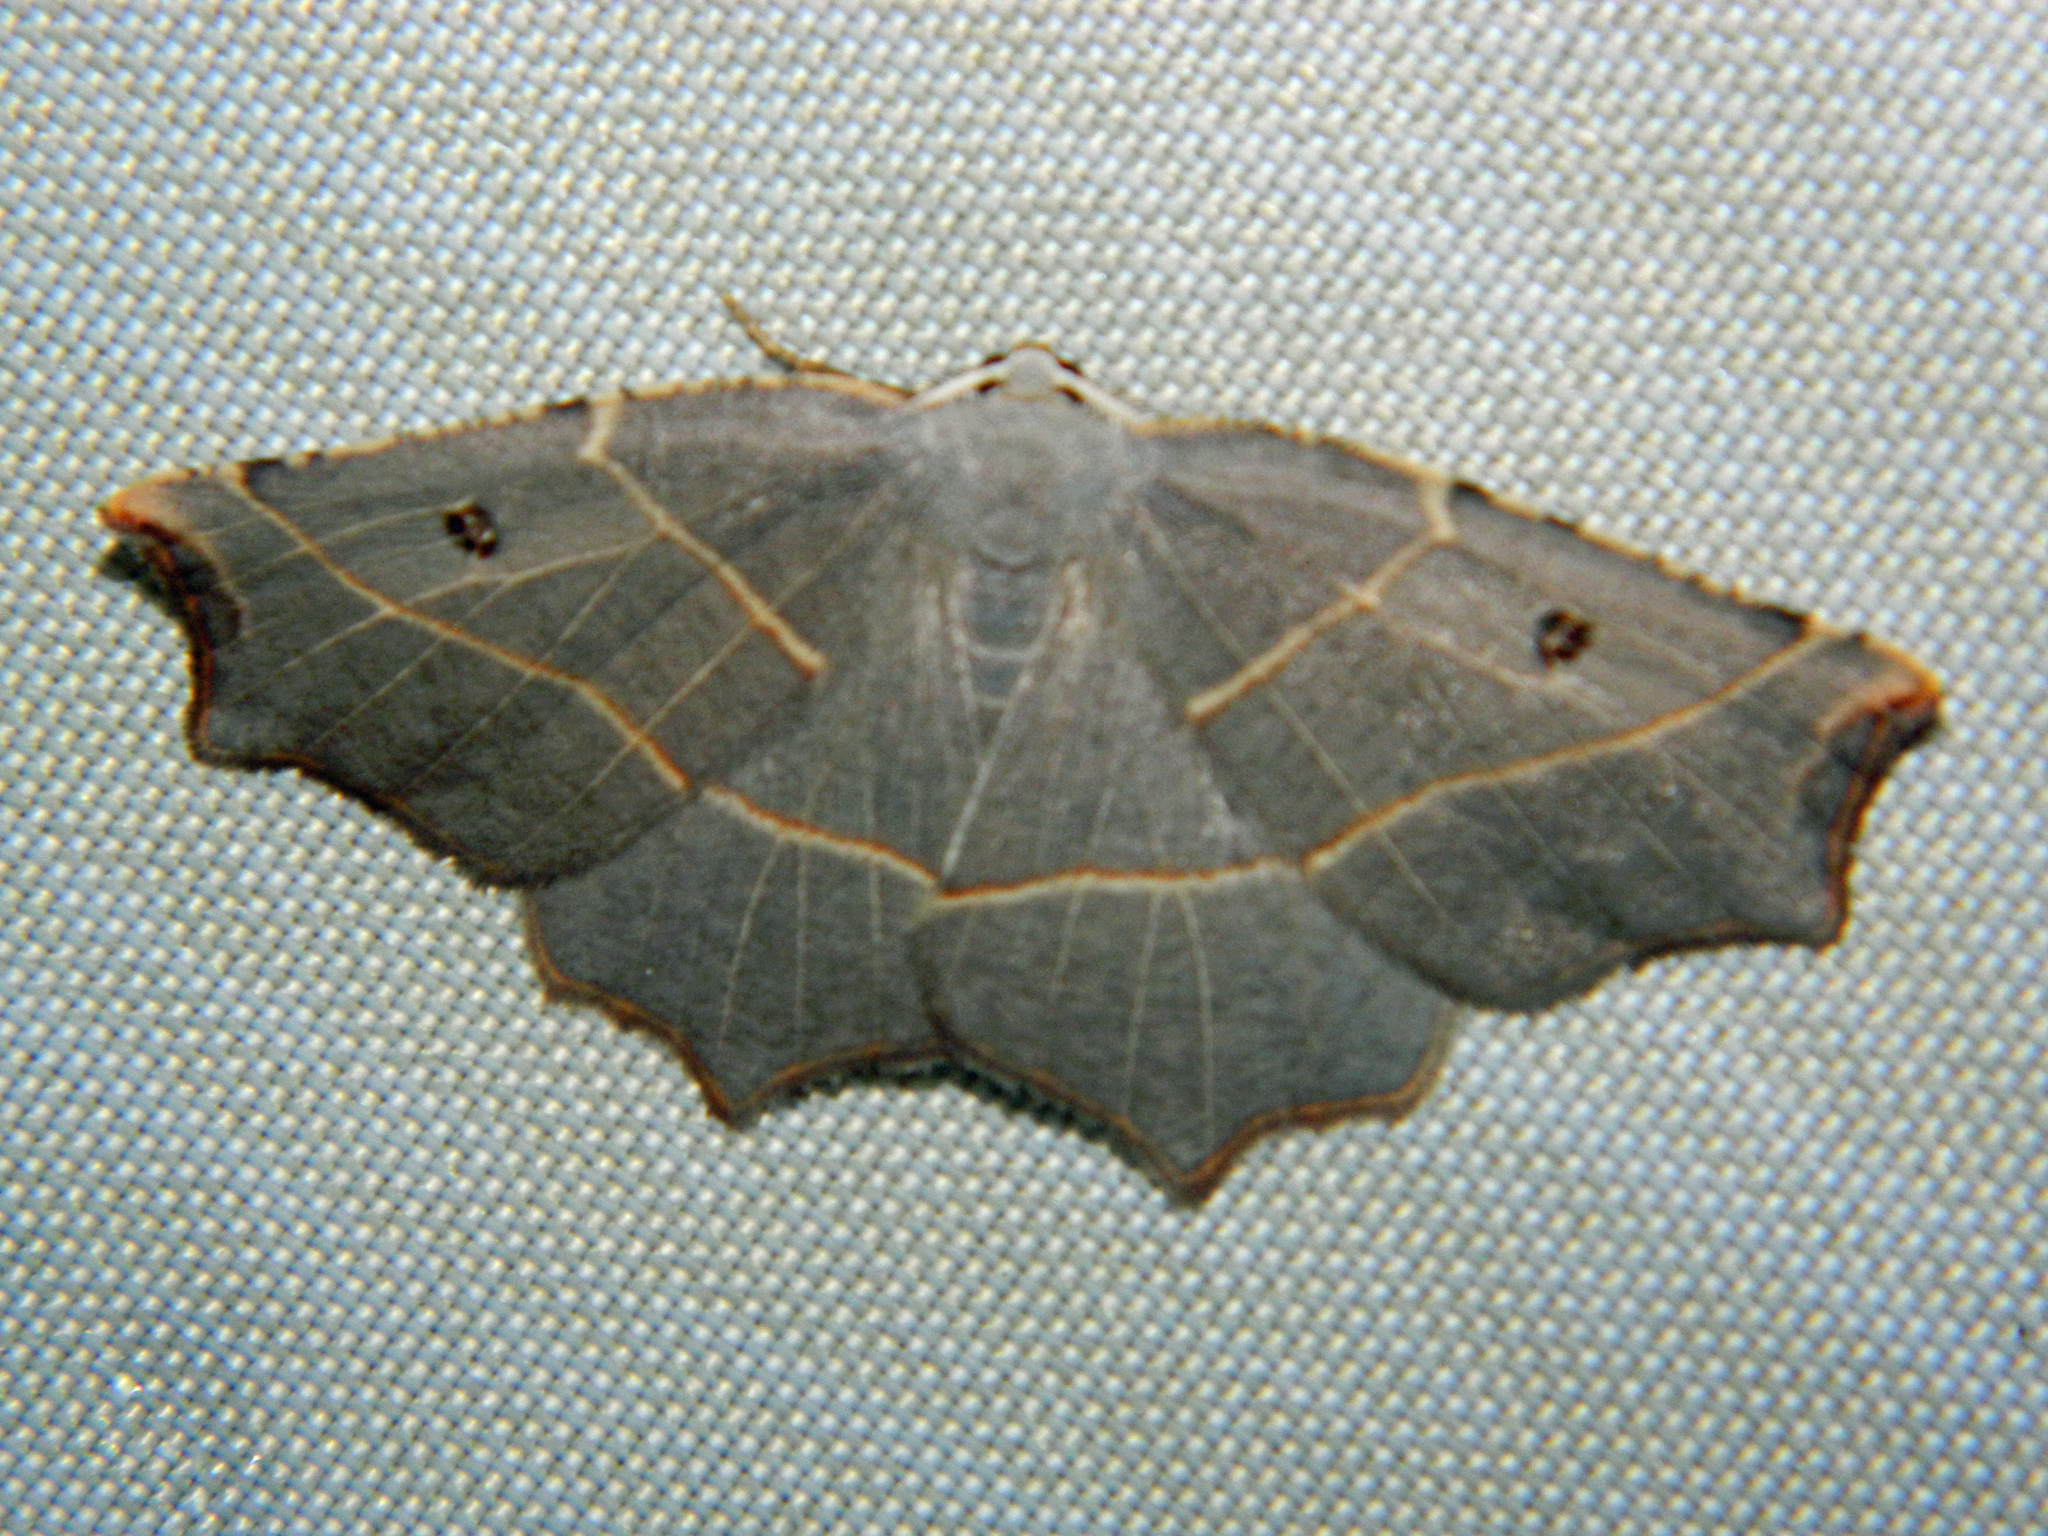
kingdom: Animalia
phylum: Arthropoda
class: Insecta
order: Lepidoptera
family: Geometridae
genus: Metanema
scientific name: Metanema inatomaria
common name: Pale metanema
